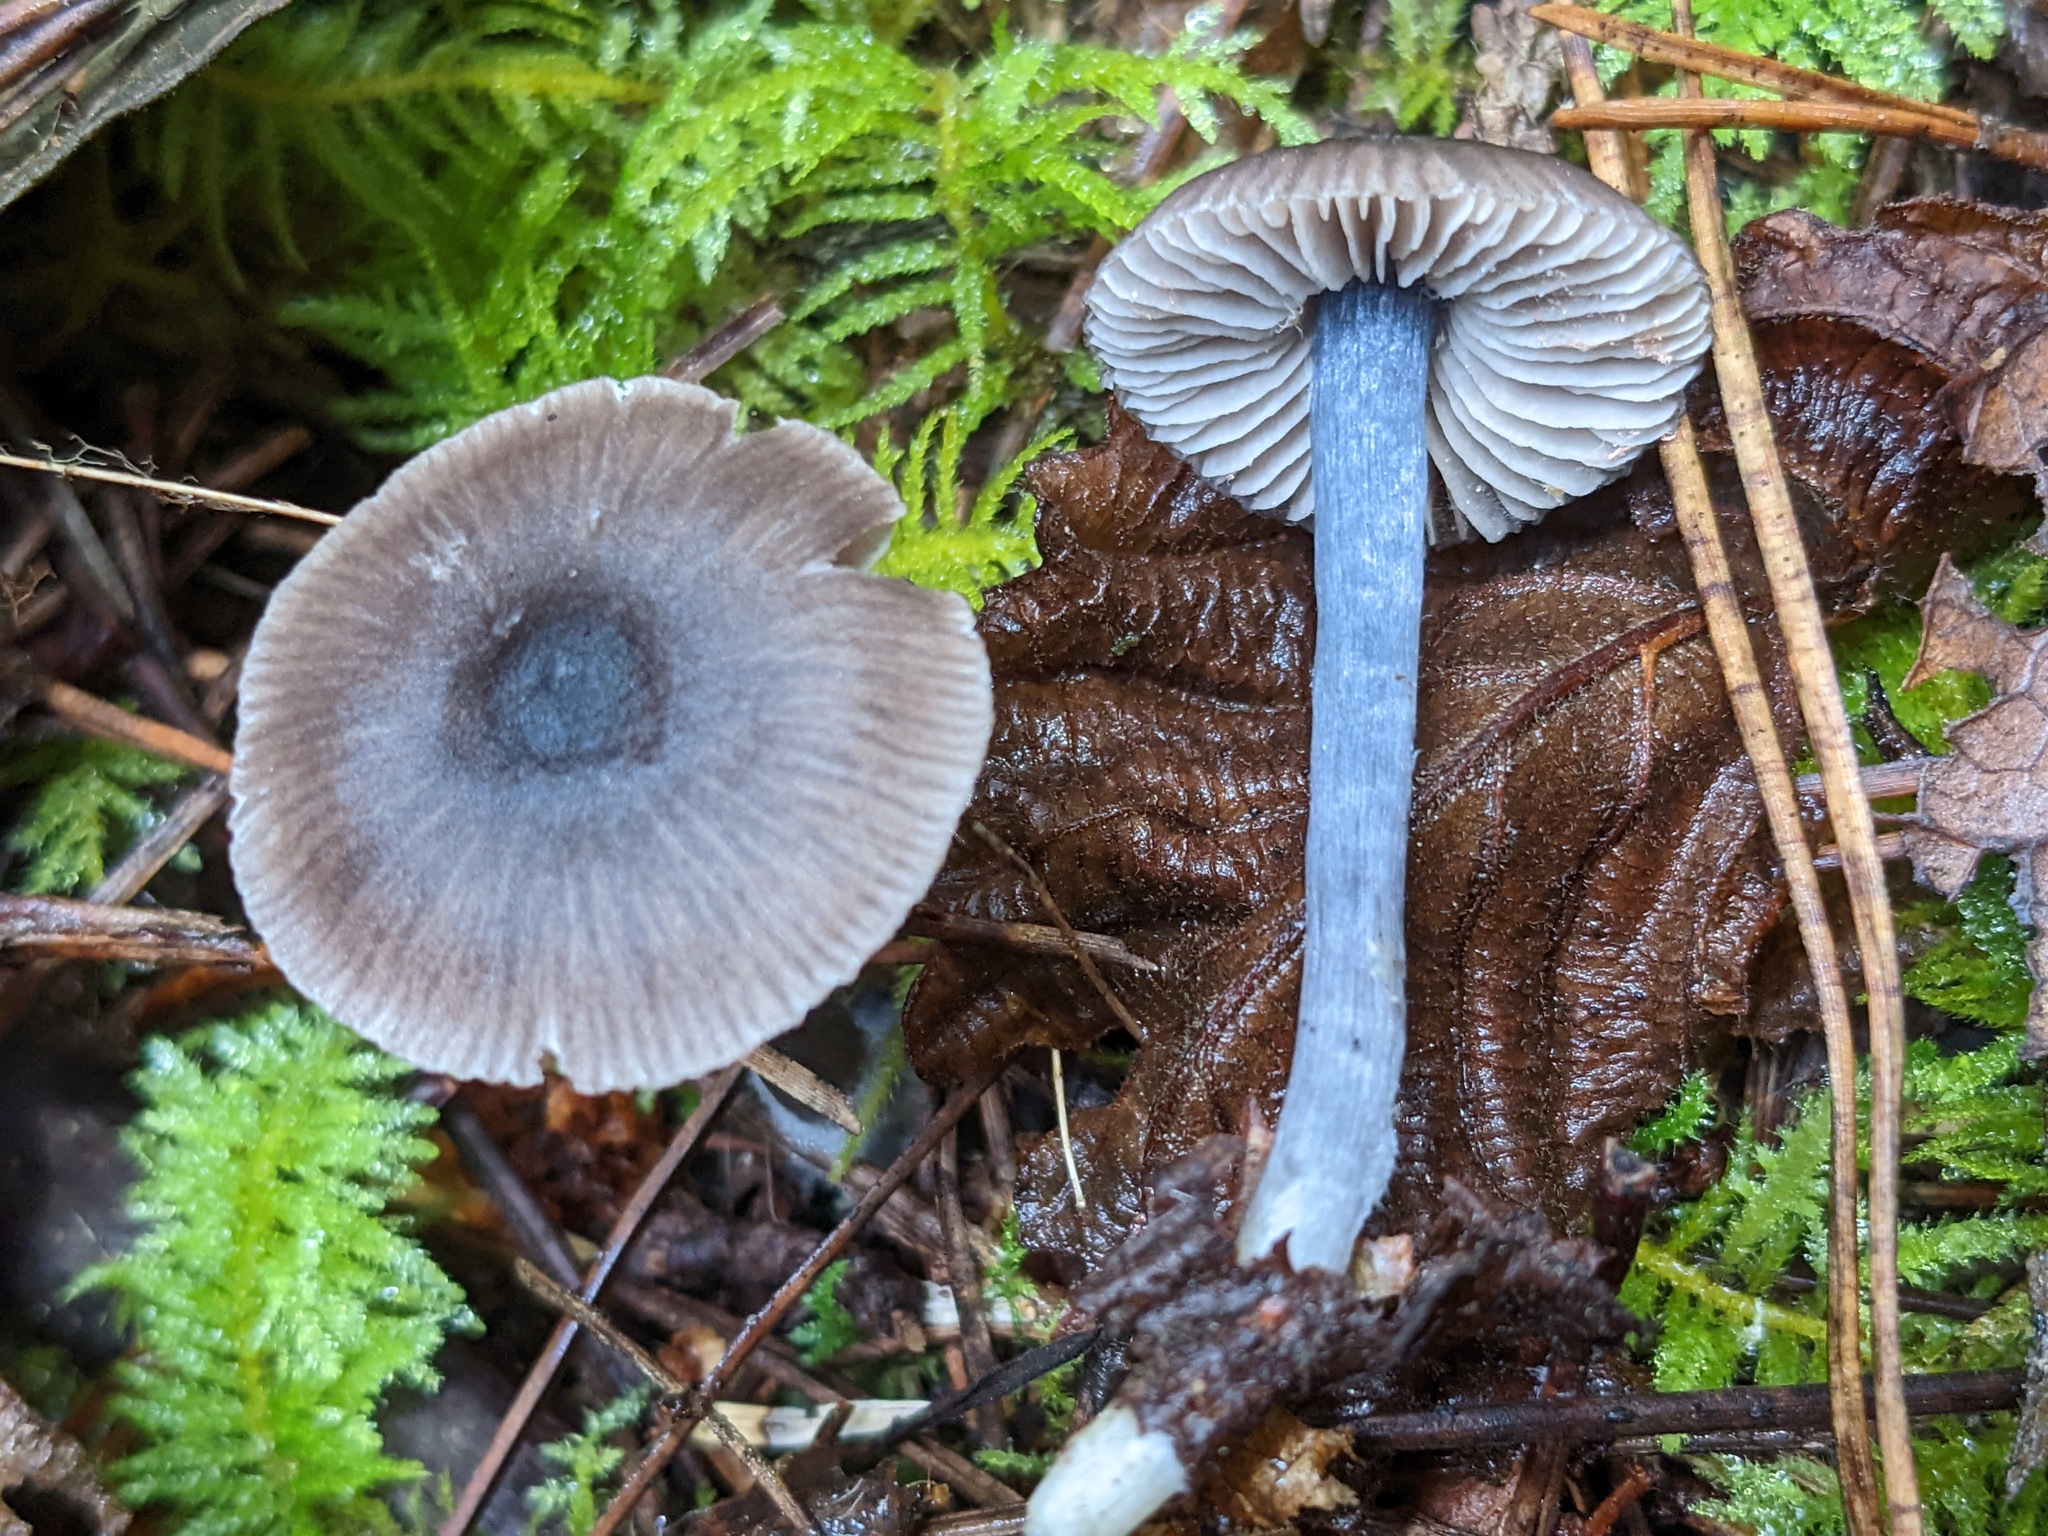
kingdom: Fungi
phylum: Basidiomycota
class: Agaricomycetes
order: Agaricales
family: Entolomataceae
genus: Entocybe
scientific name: Entocybe trachyospora
